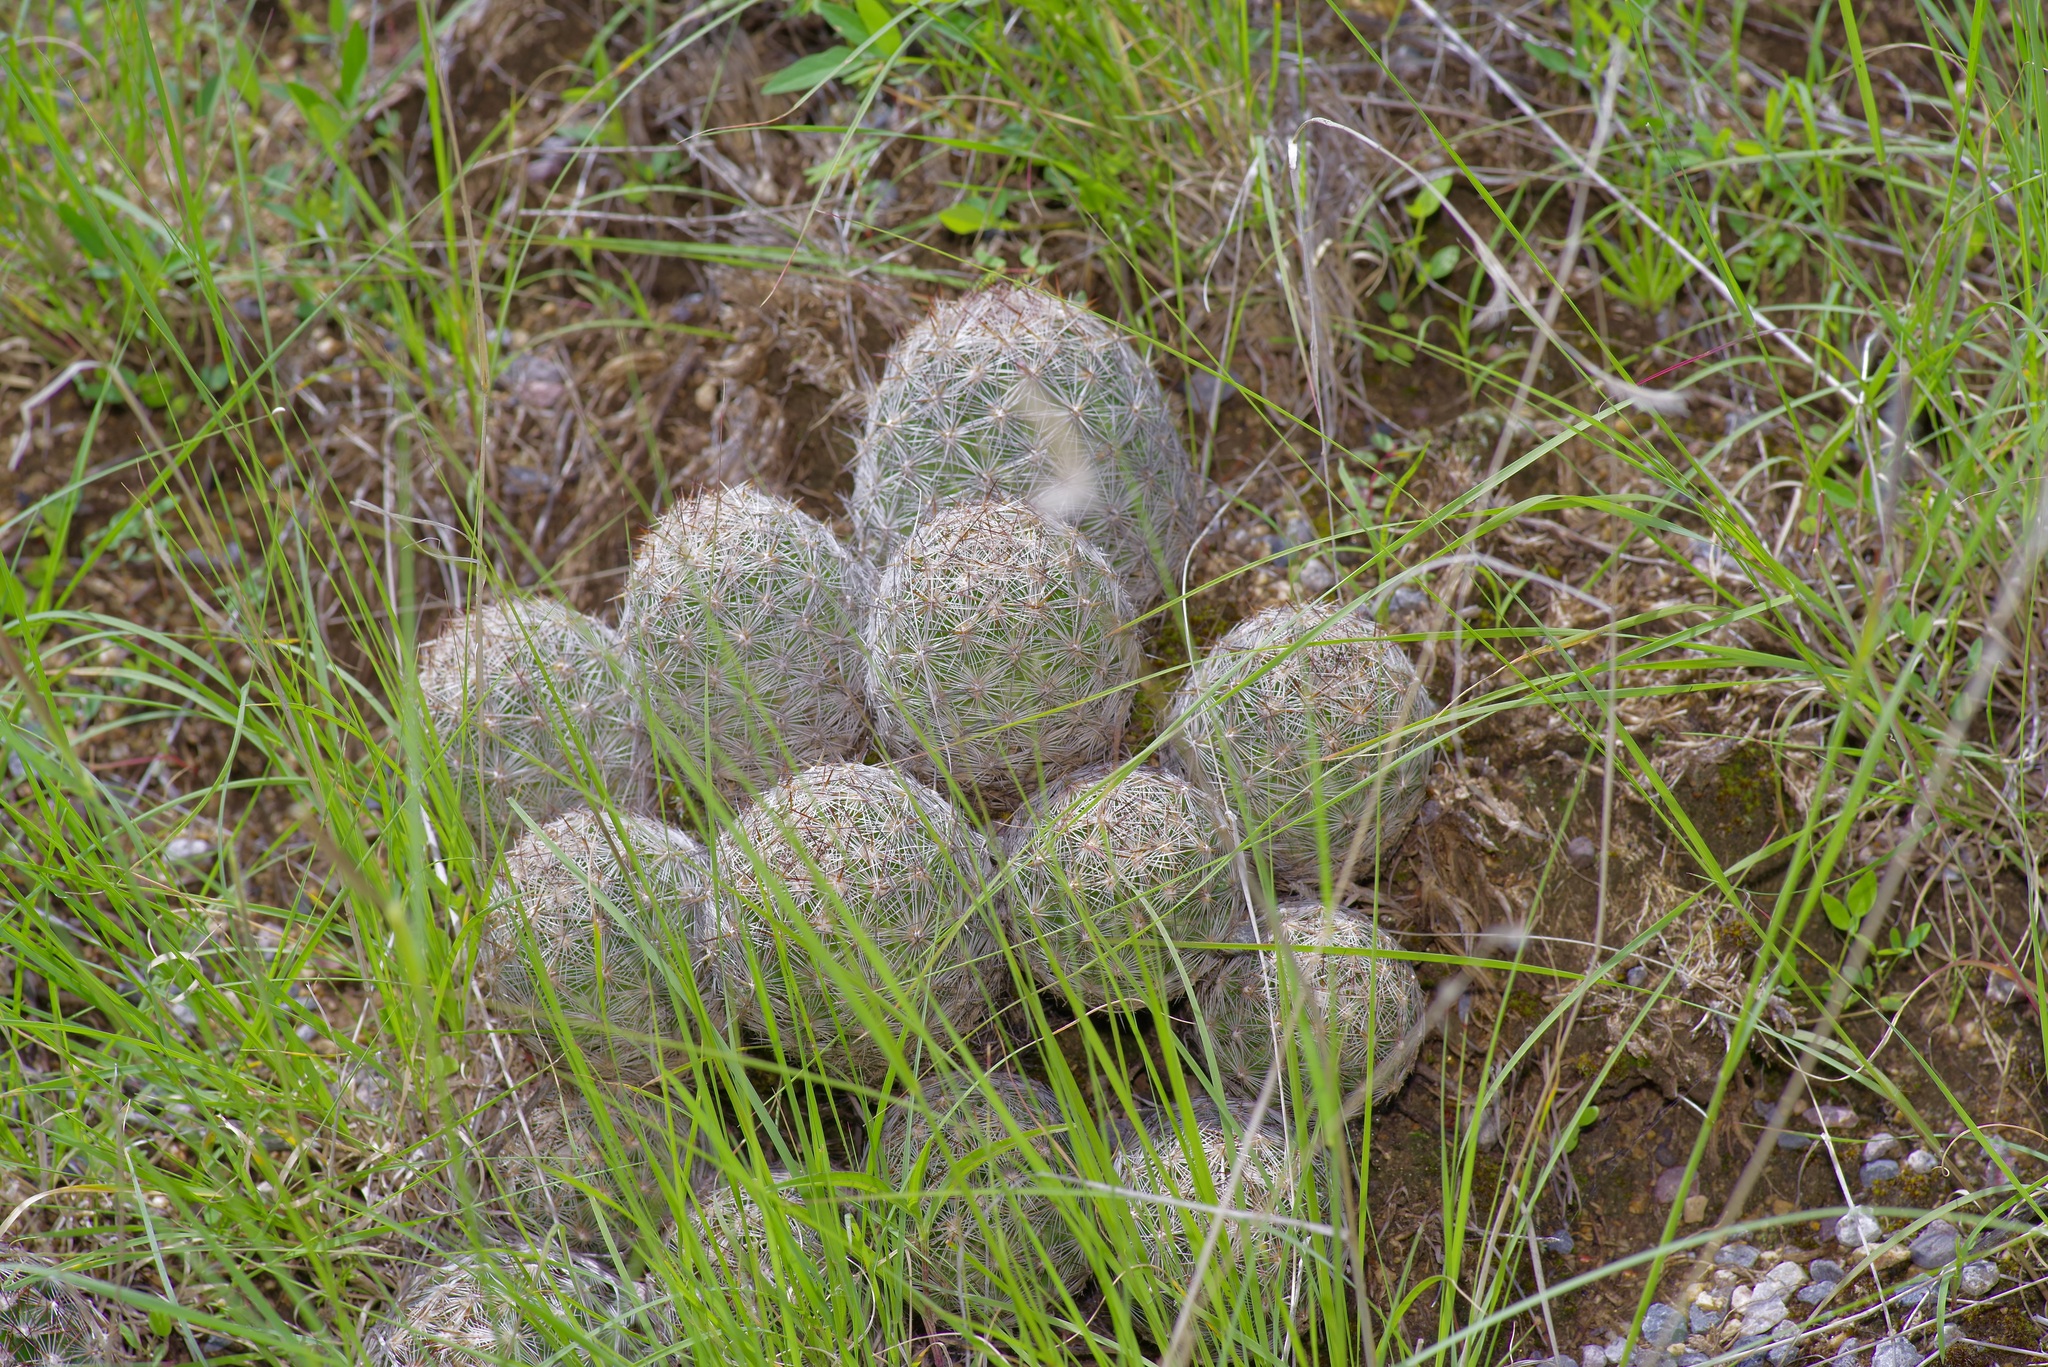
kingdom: Plantae
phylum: Tracheophyta
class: Magnoliopsida
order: Caryophyllales
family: Cactaceae
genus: Pelecyphora
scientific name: Pelecyphora vivipara
